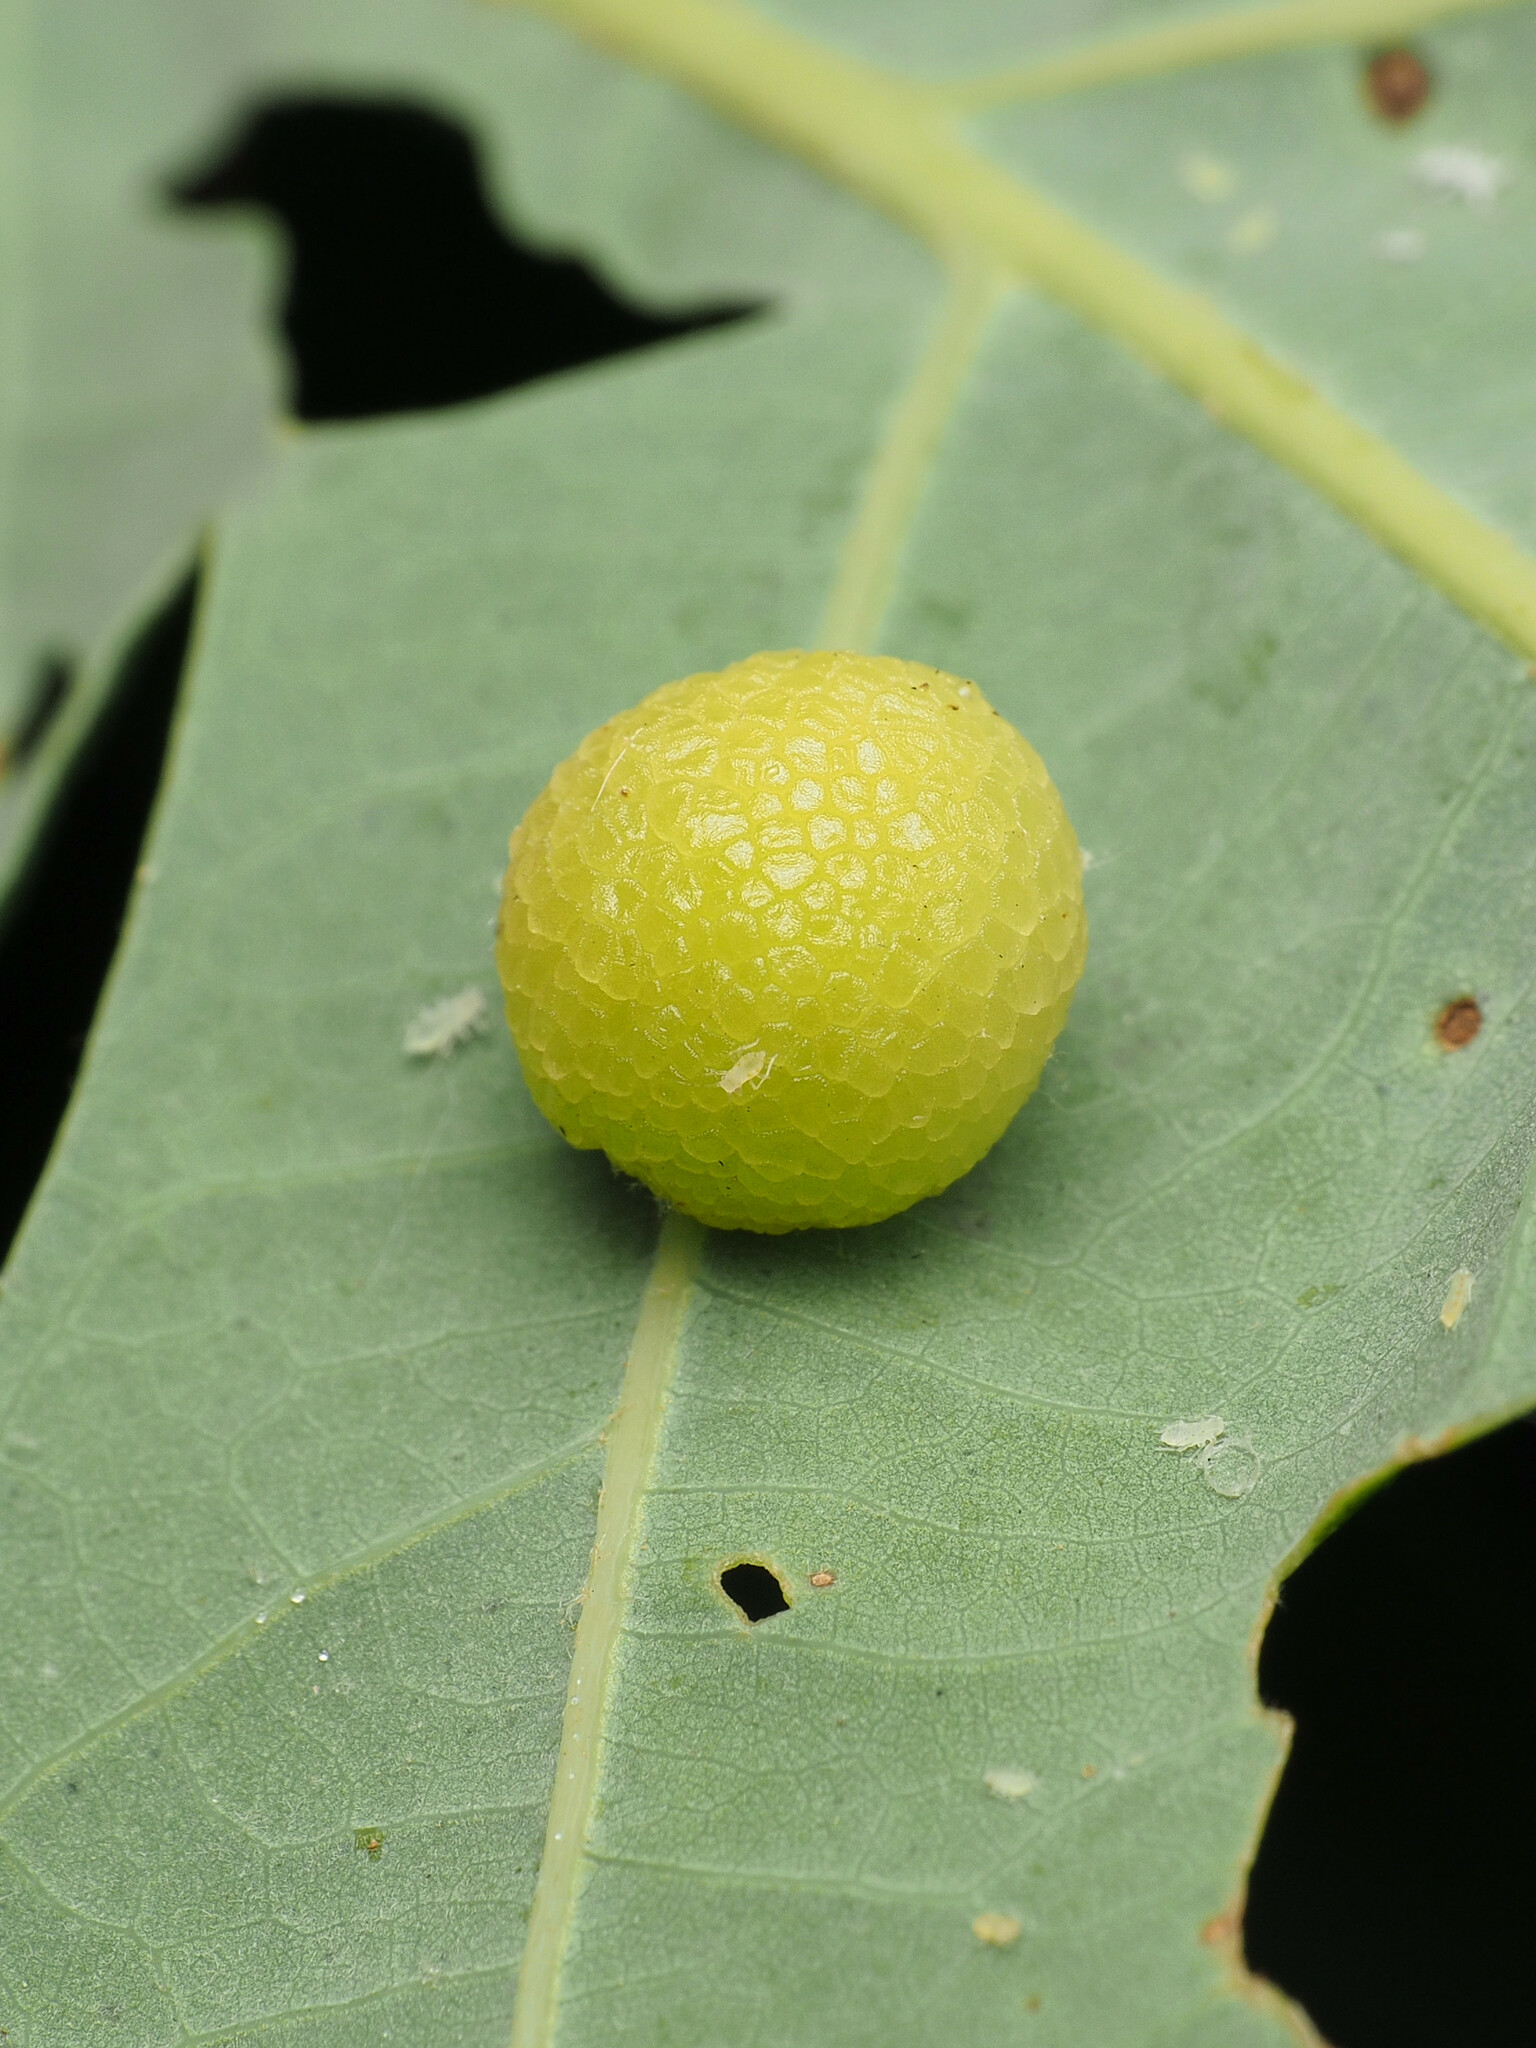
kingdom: Animalia
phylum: Arthropoda
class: Insecta
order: Hymenoptera
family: Cynipidae
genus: Acraspis
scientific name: Acraspis
